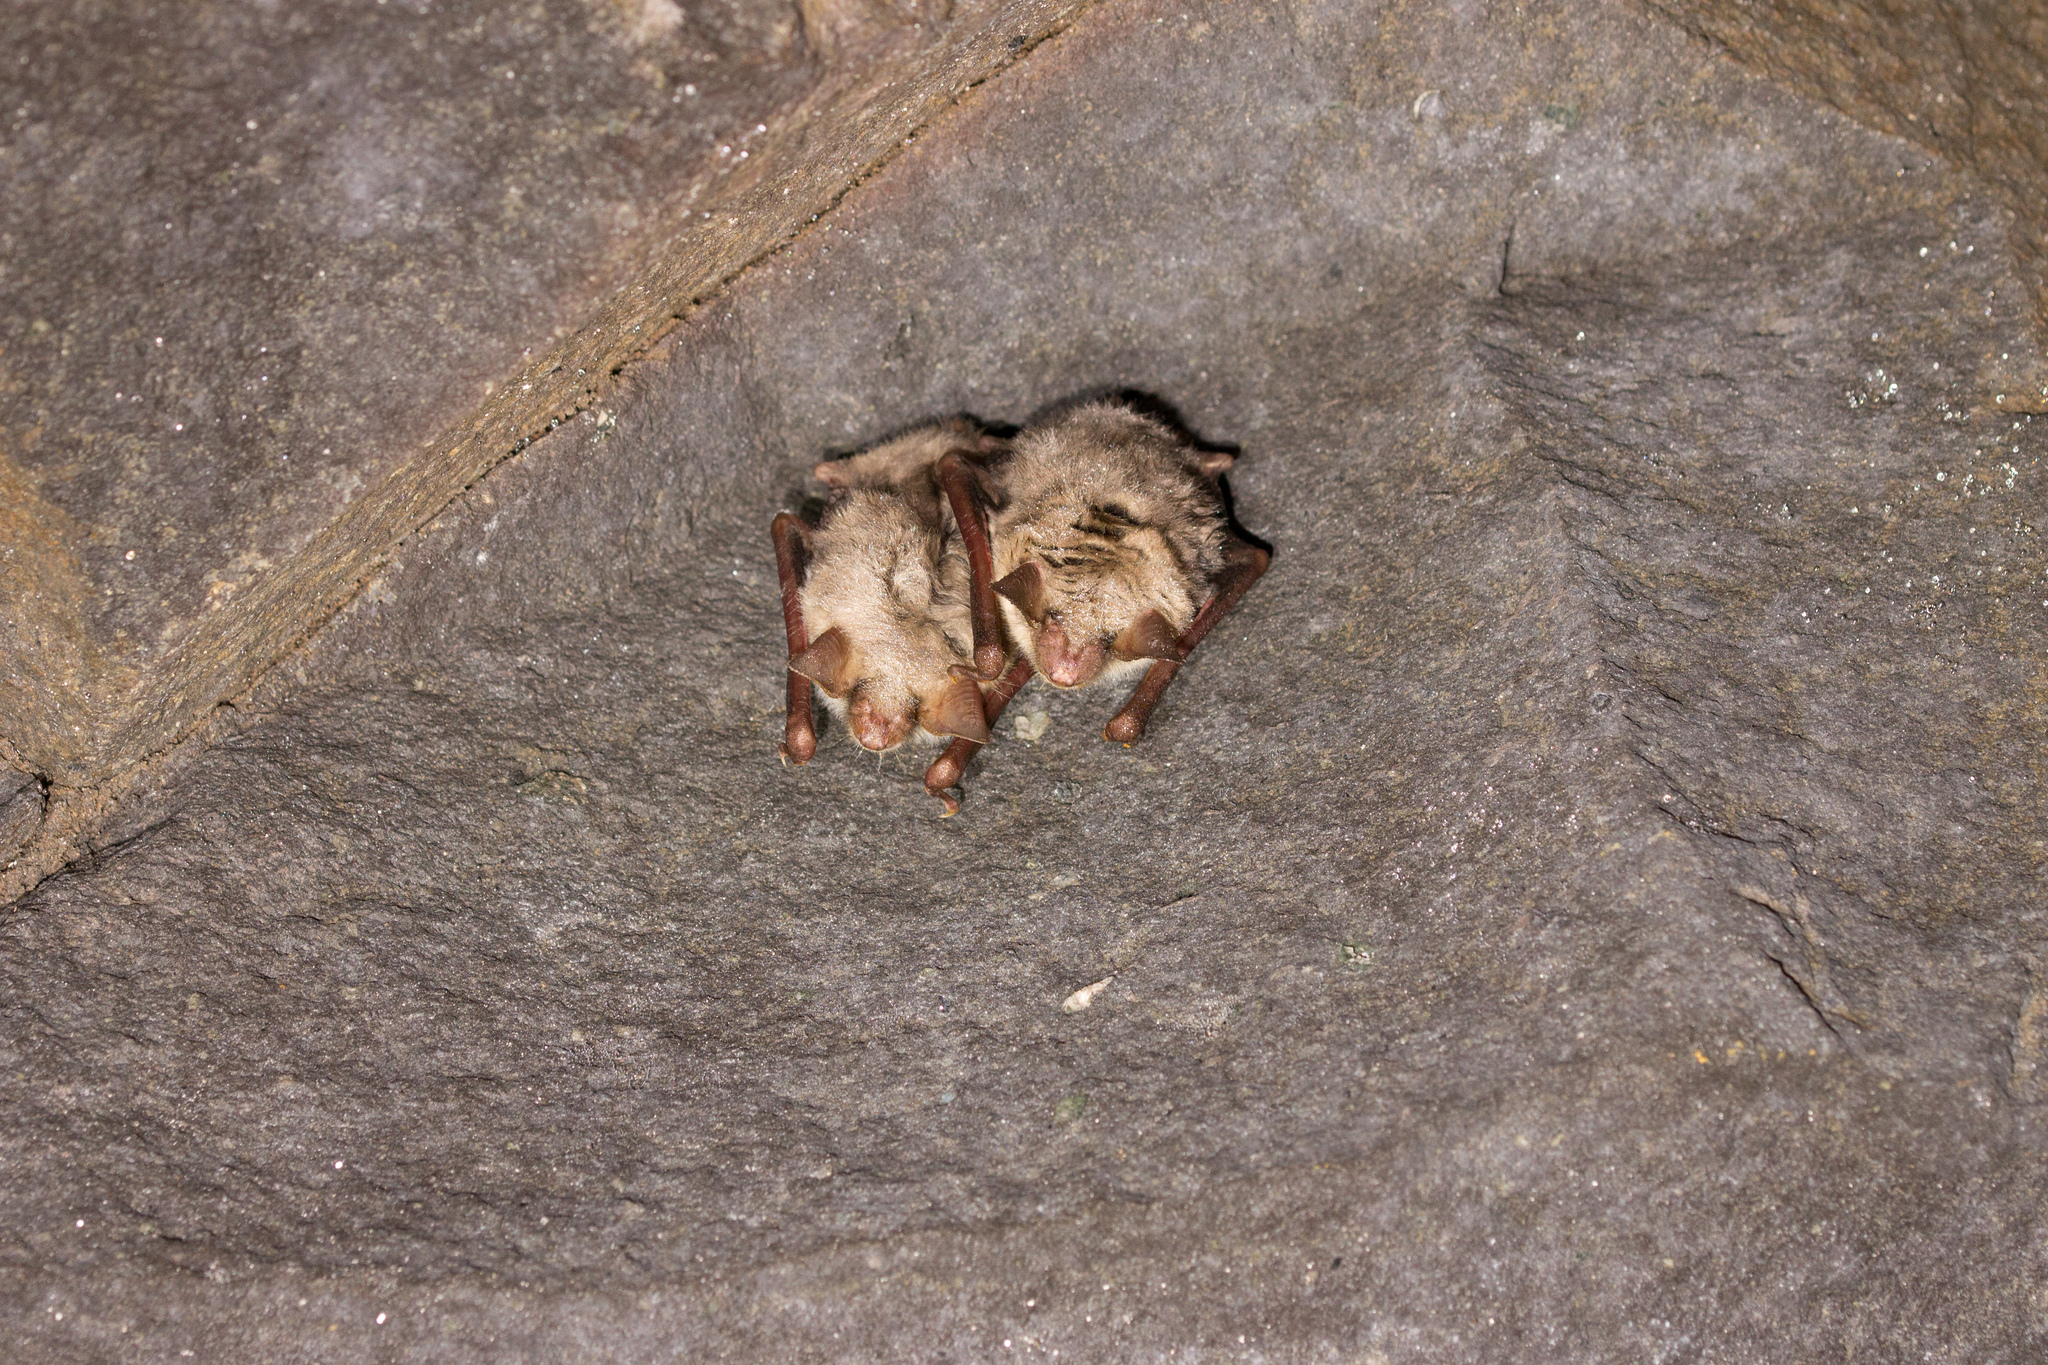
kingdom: Animalia
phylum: Chordata
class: Mammalia
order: Chiroptera
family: Vespertilionidae
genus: Myotis
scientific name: Myotis myotis
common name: Greater mouse-eared bat
